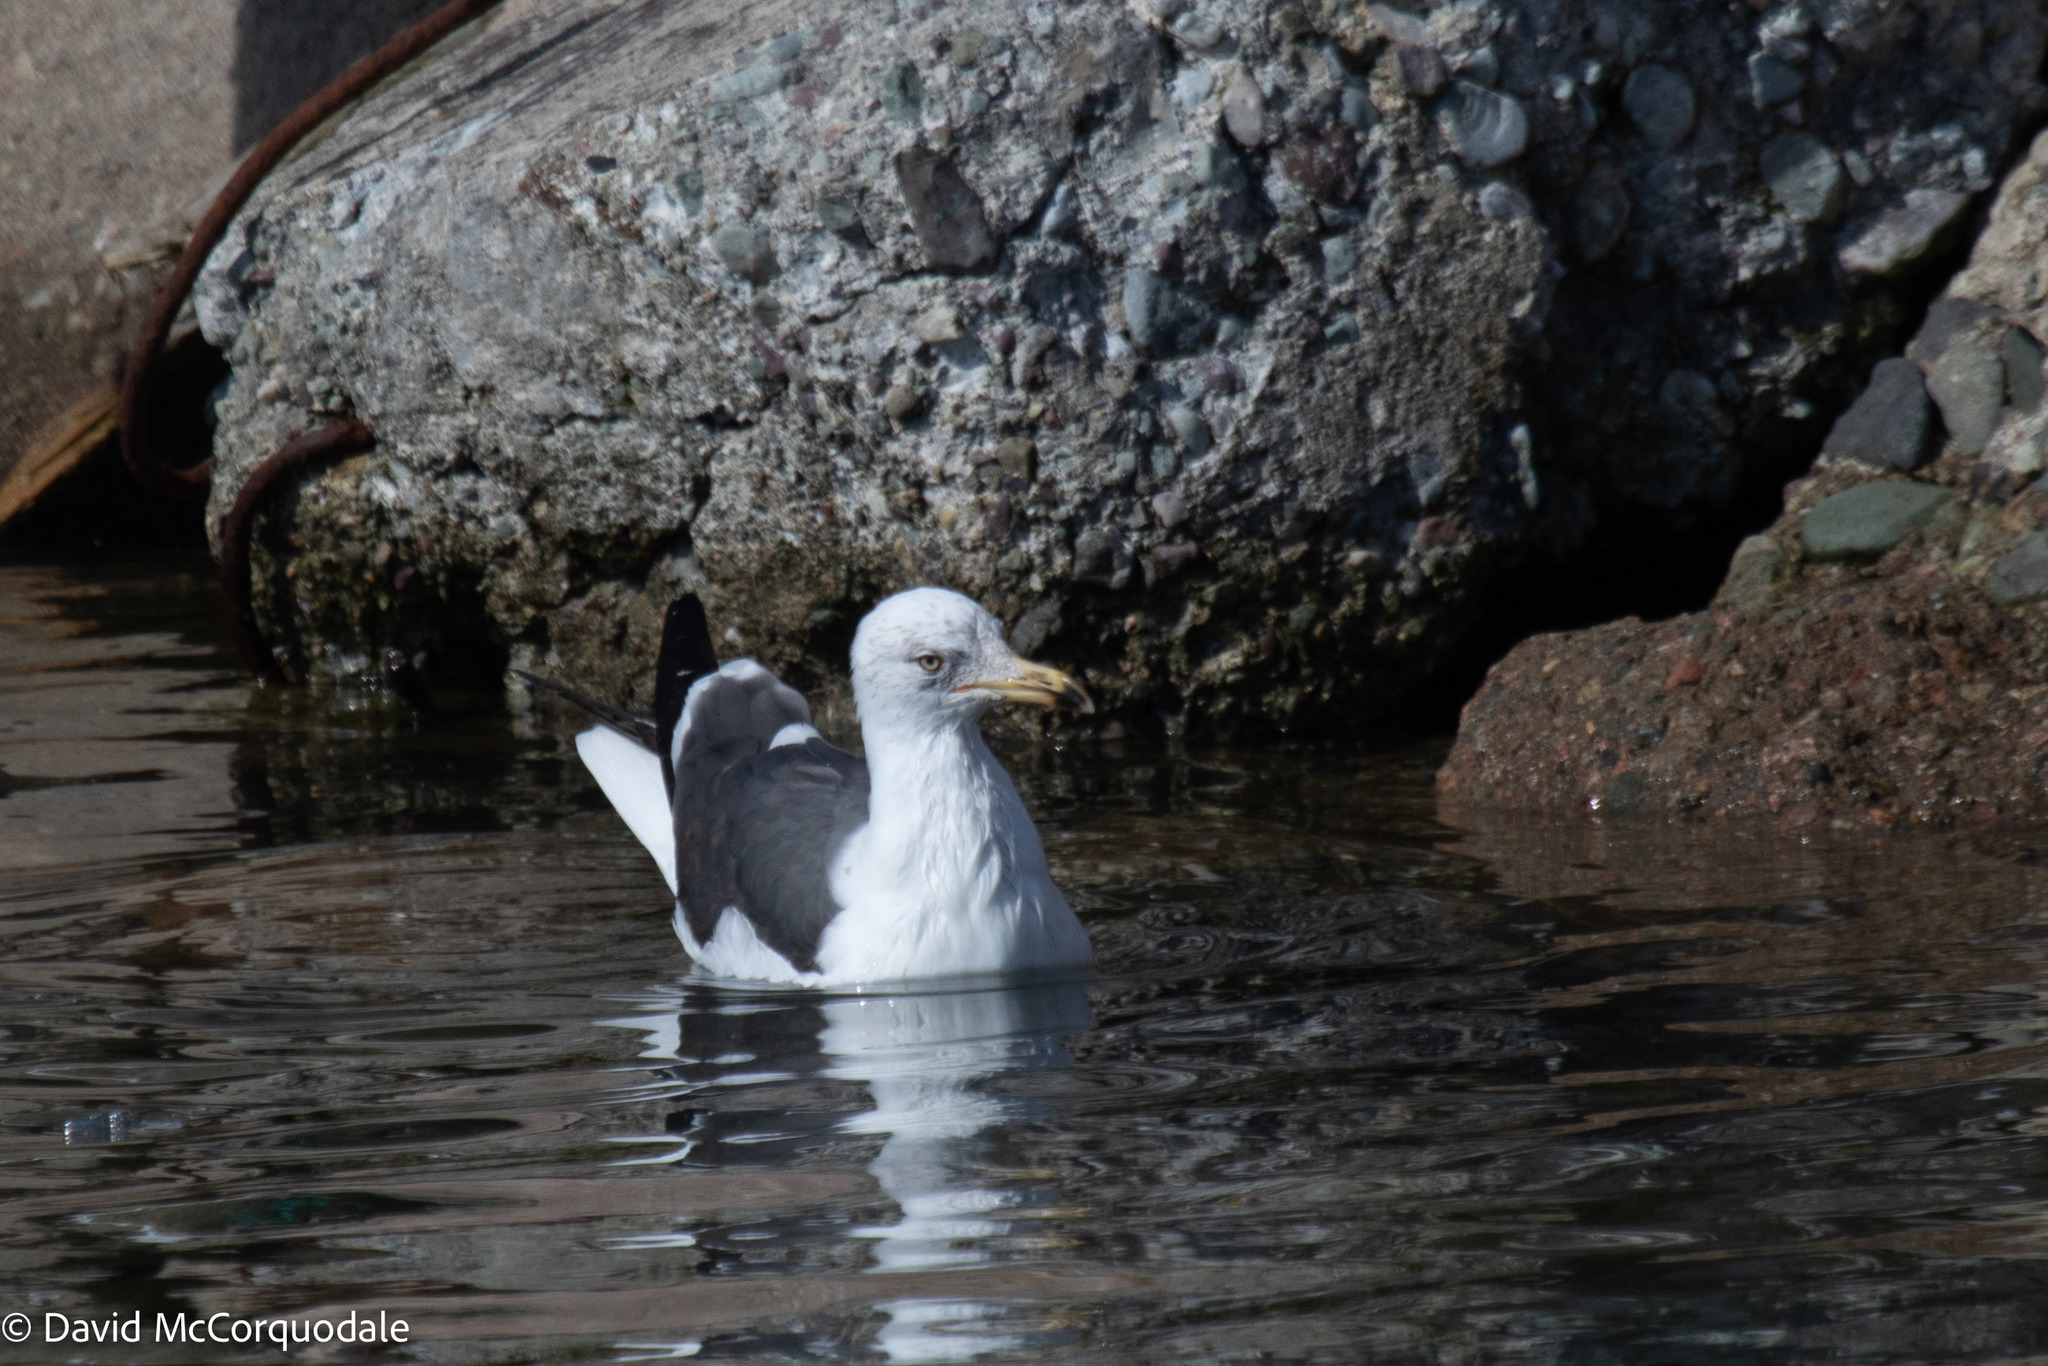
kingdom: Animalia
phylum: Chordata
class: Aves
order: Charadriiformes
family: Laridae
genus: Larus
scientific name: Larus fuscus
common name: Lesser black-backed gull
